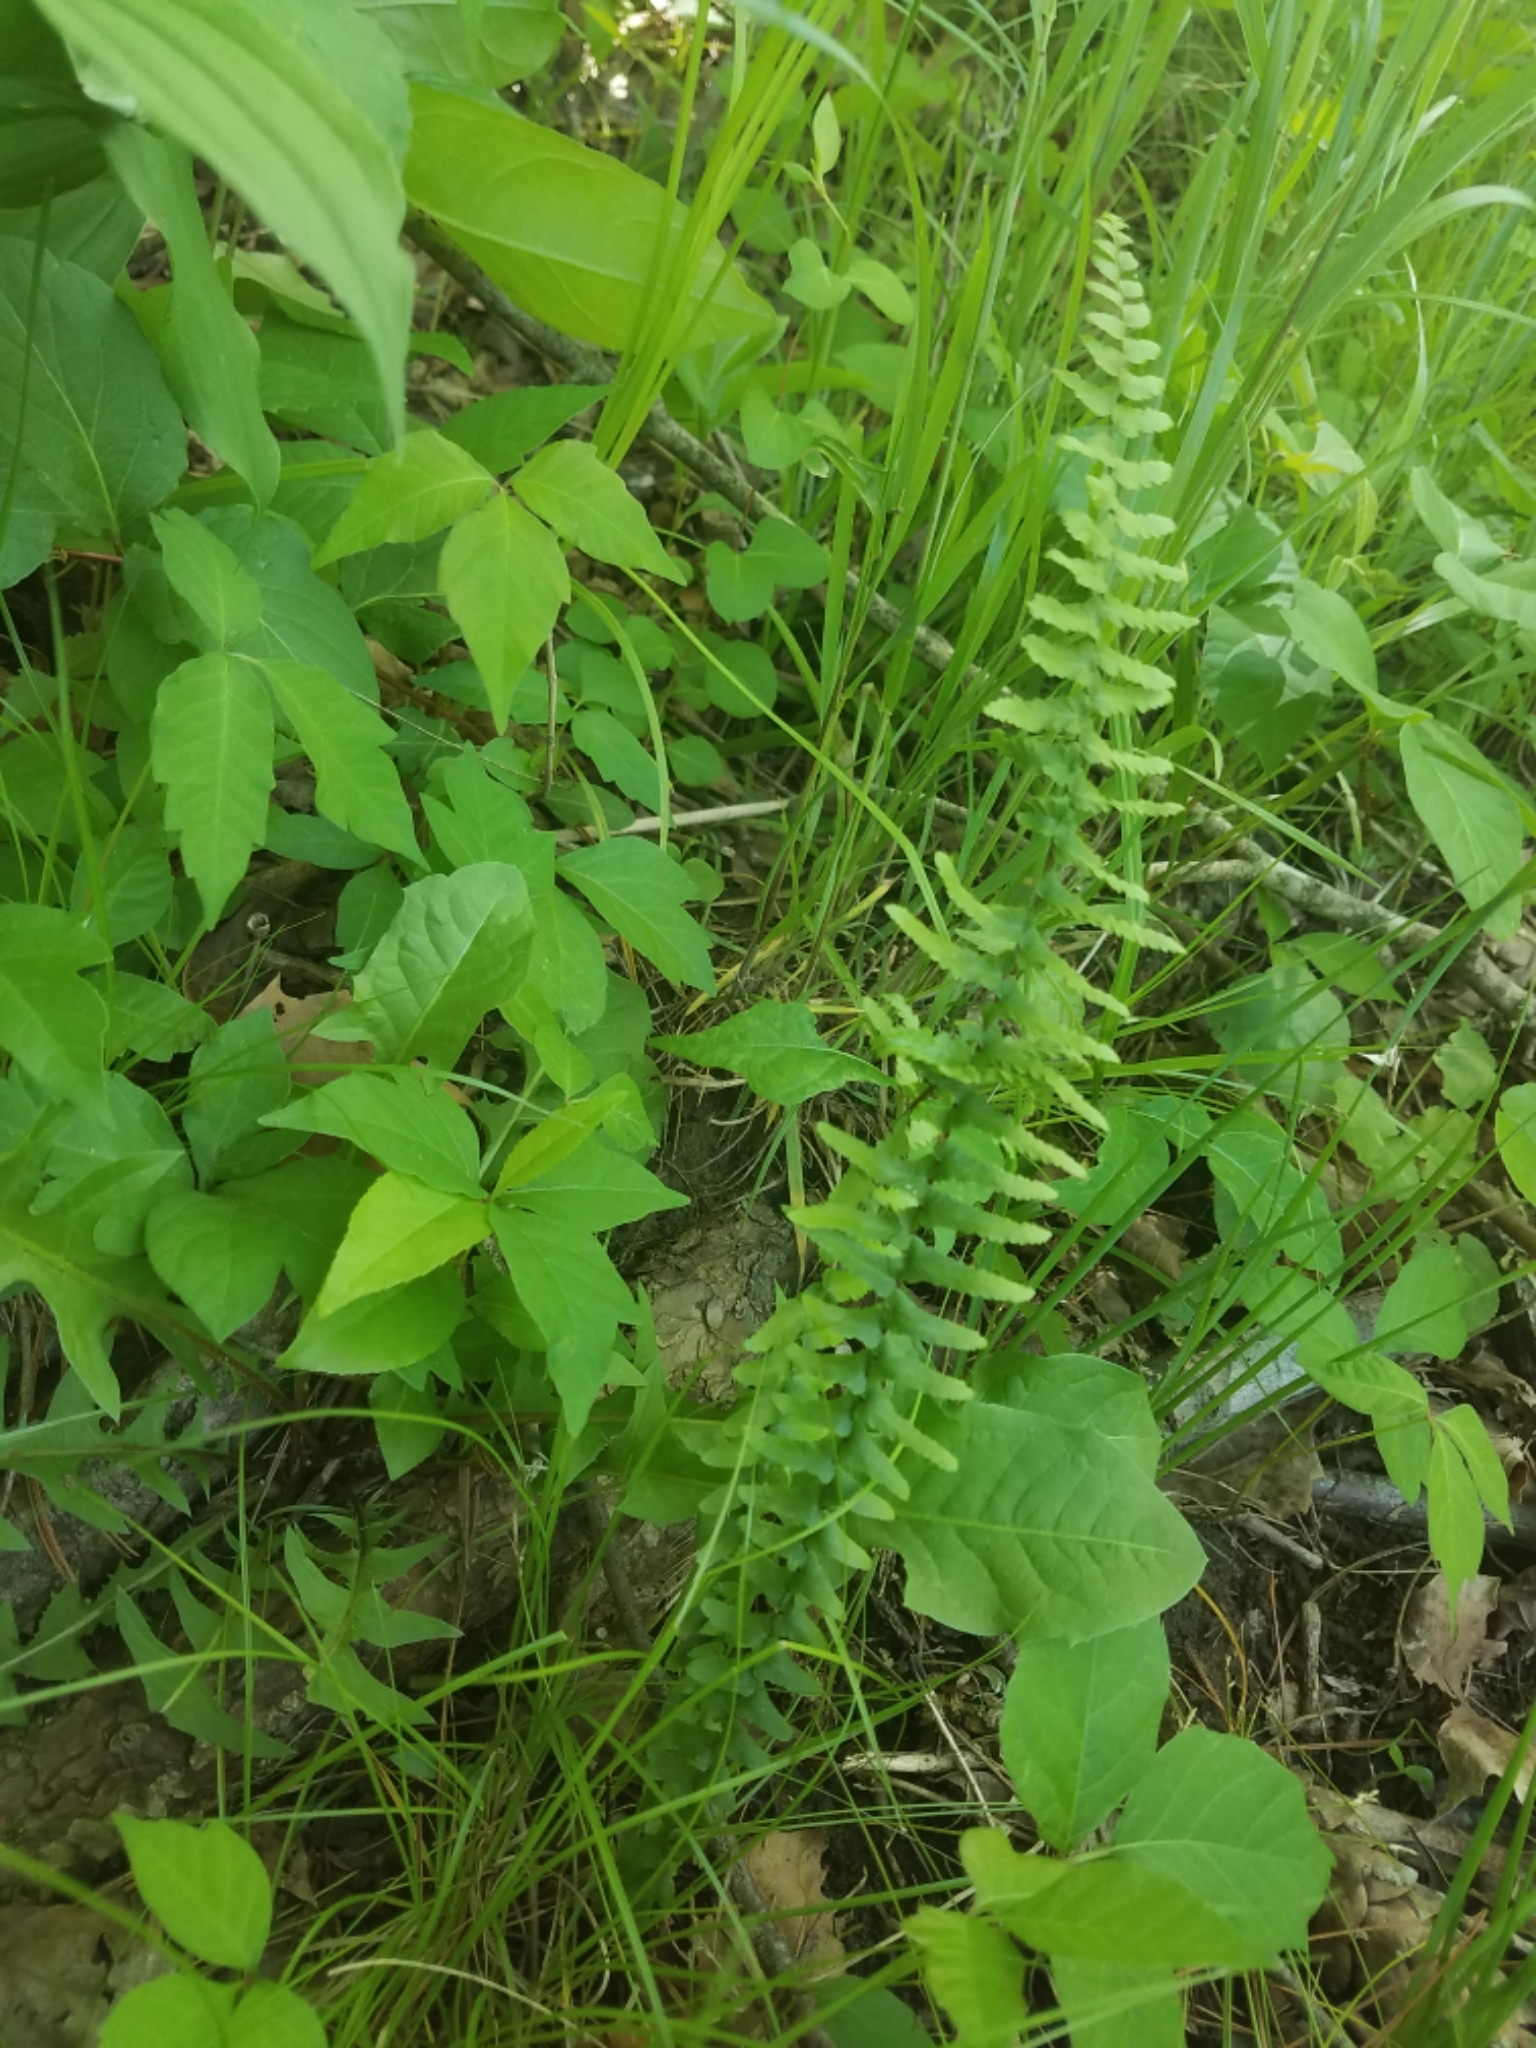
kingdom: Plantae
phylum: Tracheophyta
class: Polypodiopsida
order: Polypodiales
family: Aspleniaceae
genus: Asplenium
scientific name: Asplenium platyneuron
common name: Ebony spleenwort
